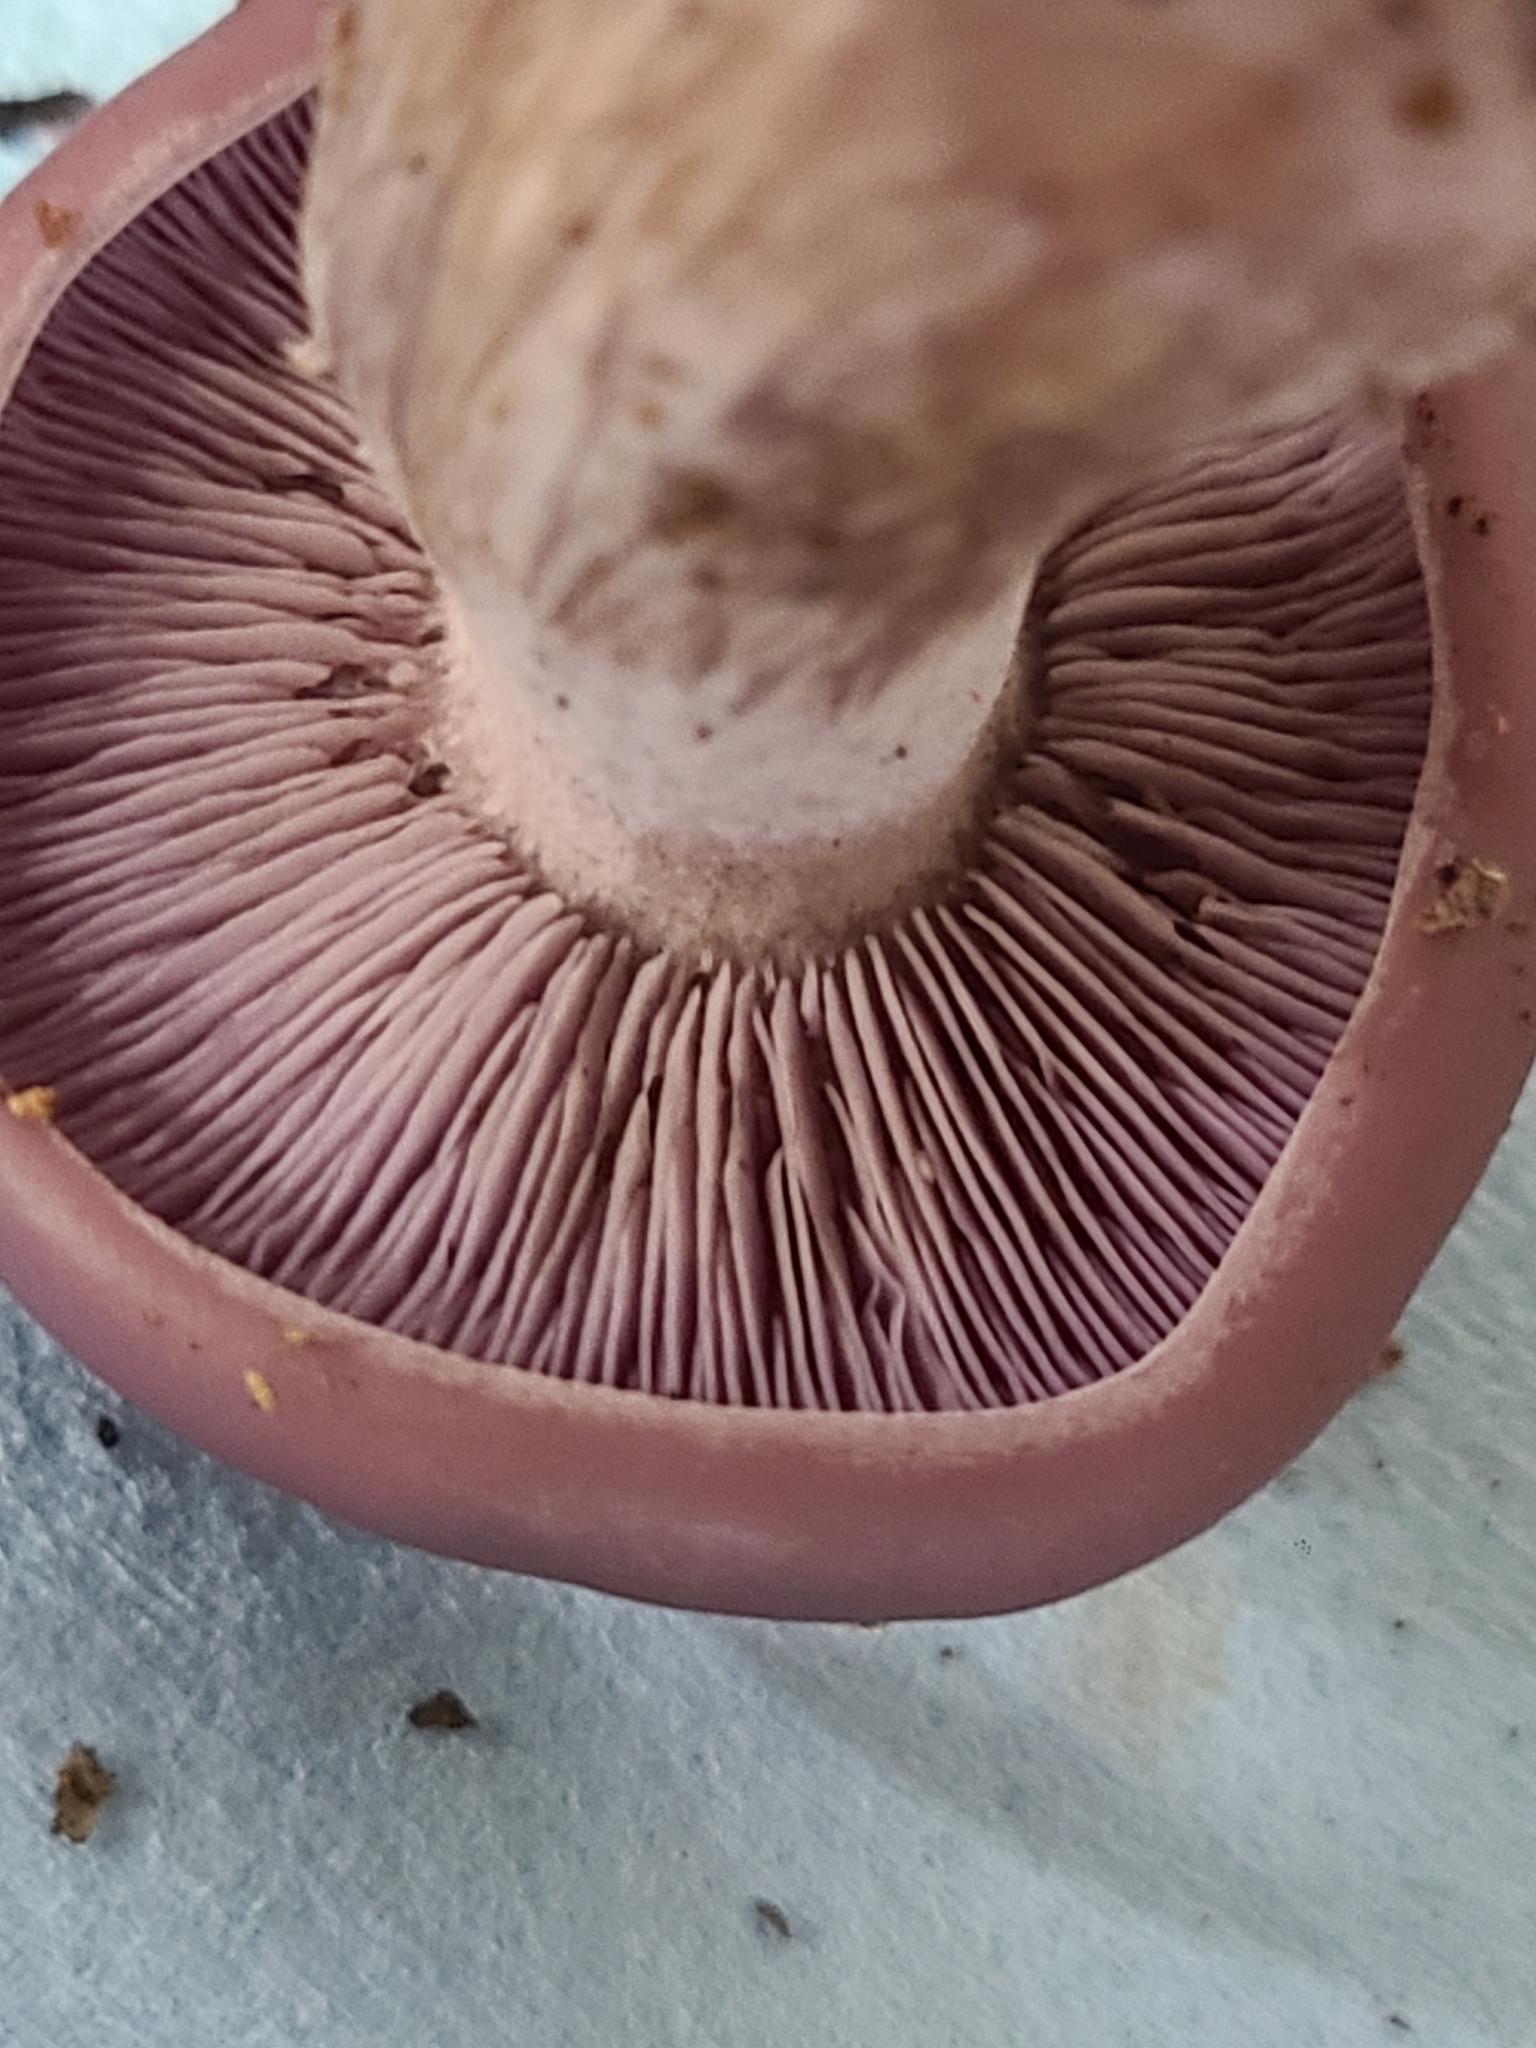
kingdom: Fungi
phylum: Basidiomycota
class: Agaricomycetes
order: Agaricales
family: Tricholomataceae
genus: Collybia
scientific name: Collybia
